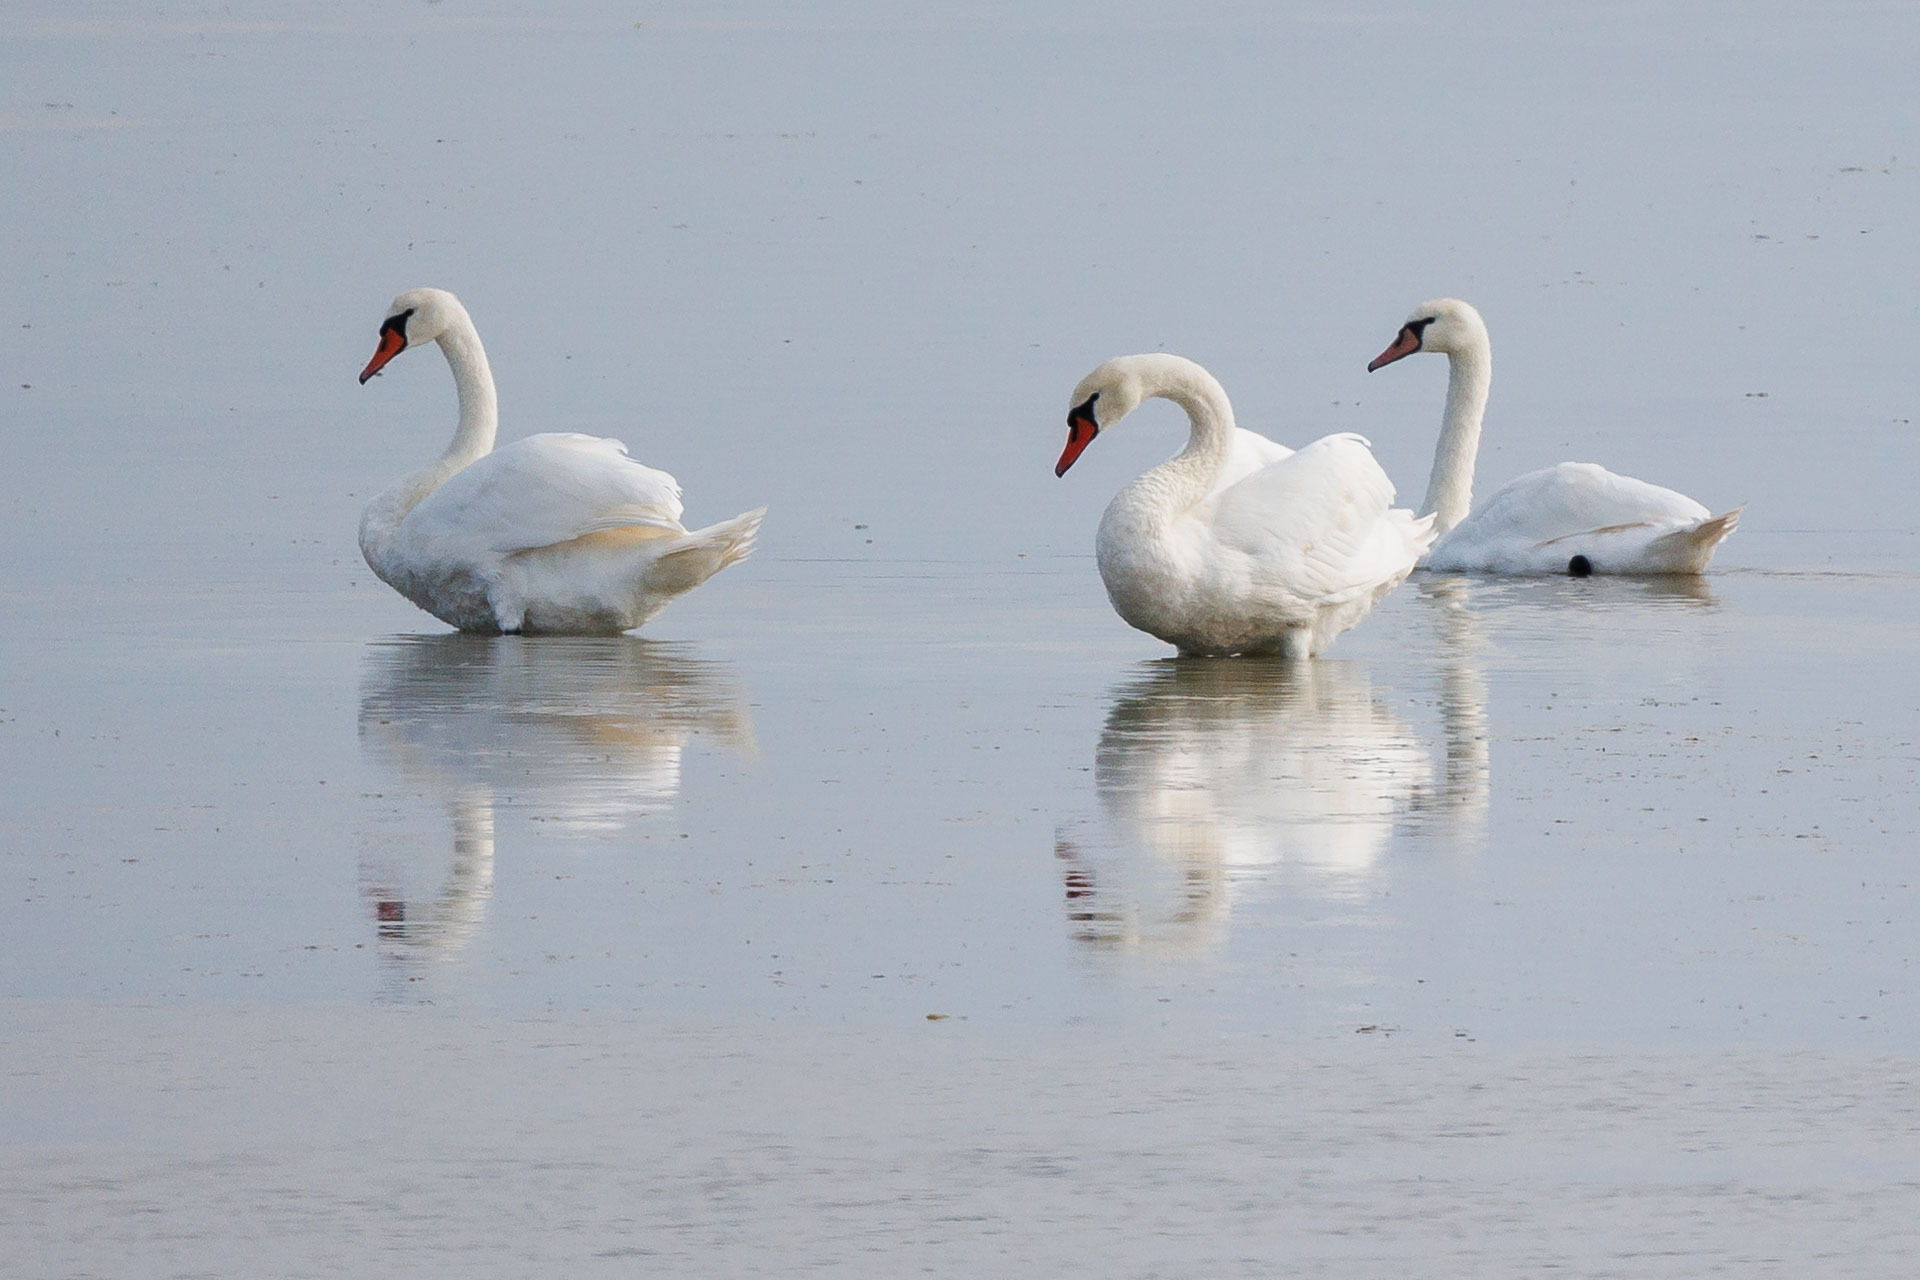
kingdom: Animalia
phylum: Chordata
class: Aves
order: Anseriformes
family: Anatidae
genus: Cygnus
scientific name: Cygnus olor
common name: Mute swan
